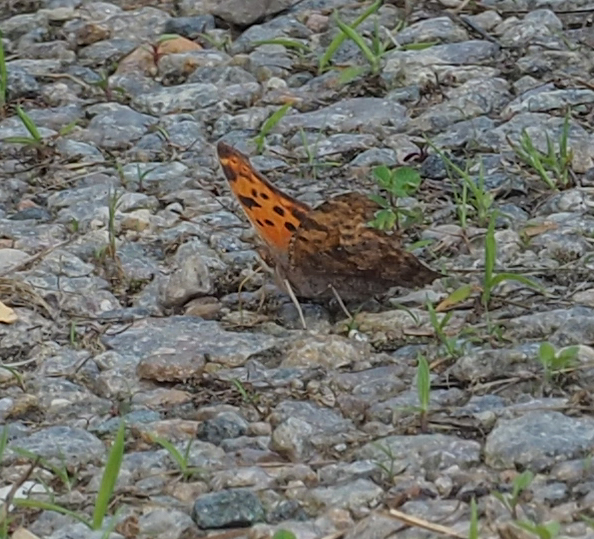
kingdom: Animalia
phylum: Arthropoda
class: Insecta
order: Lepidoptera
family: Nymphalidae
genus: Polygonia
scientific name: Polygonia interrogationis
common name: Question mark
